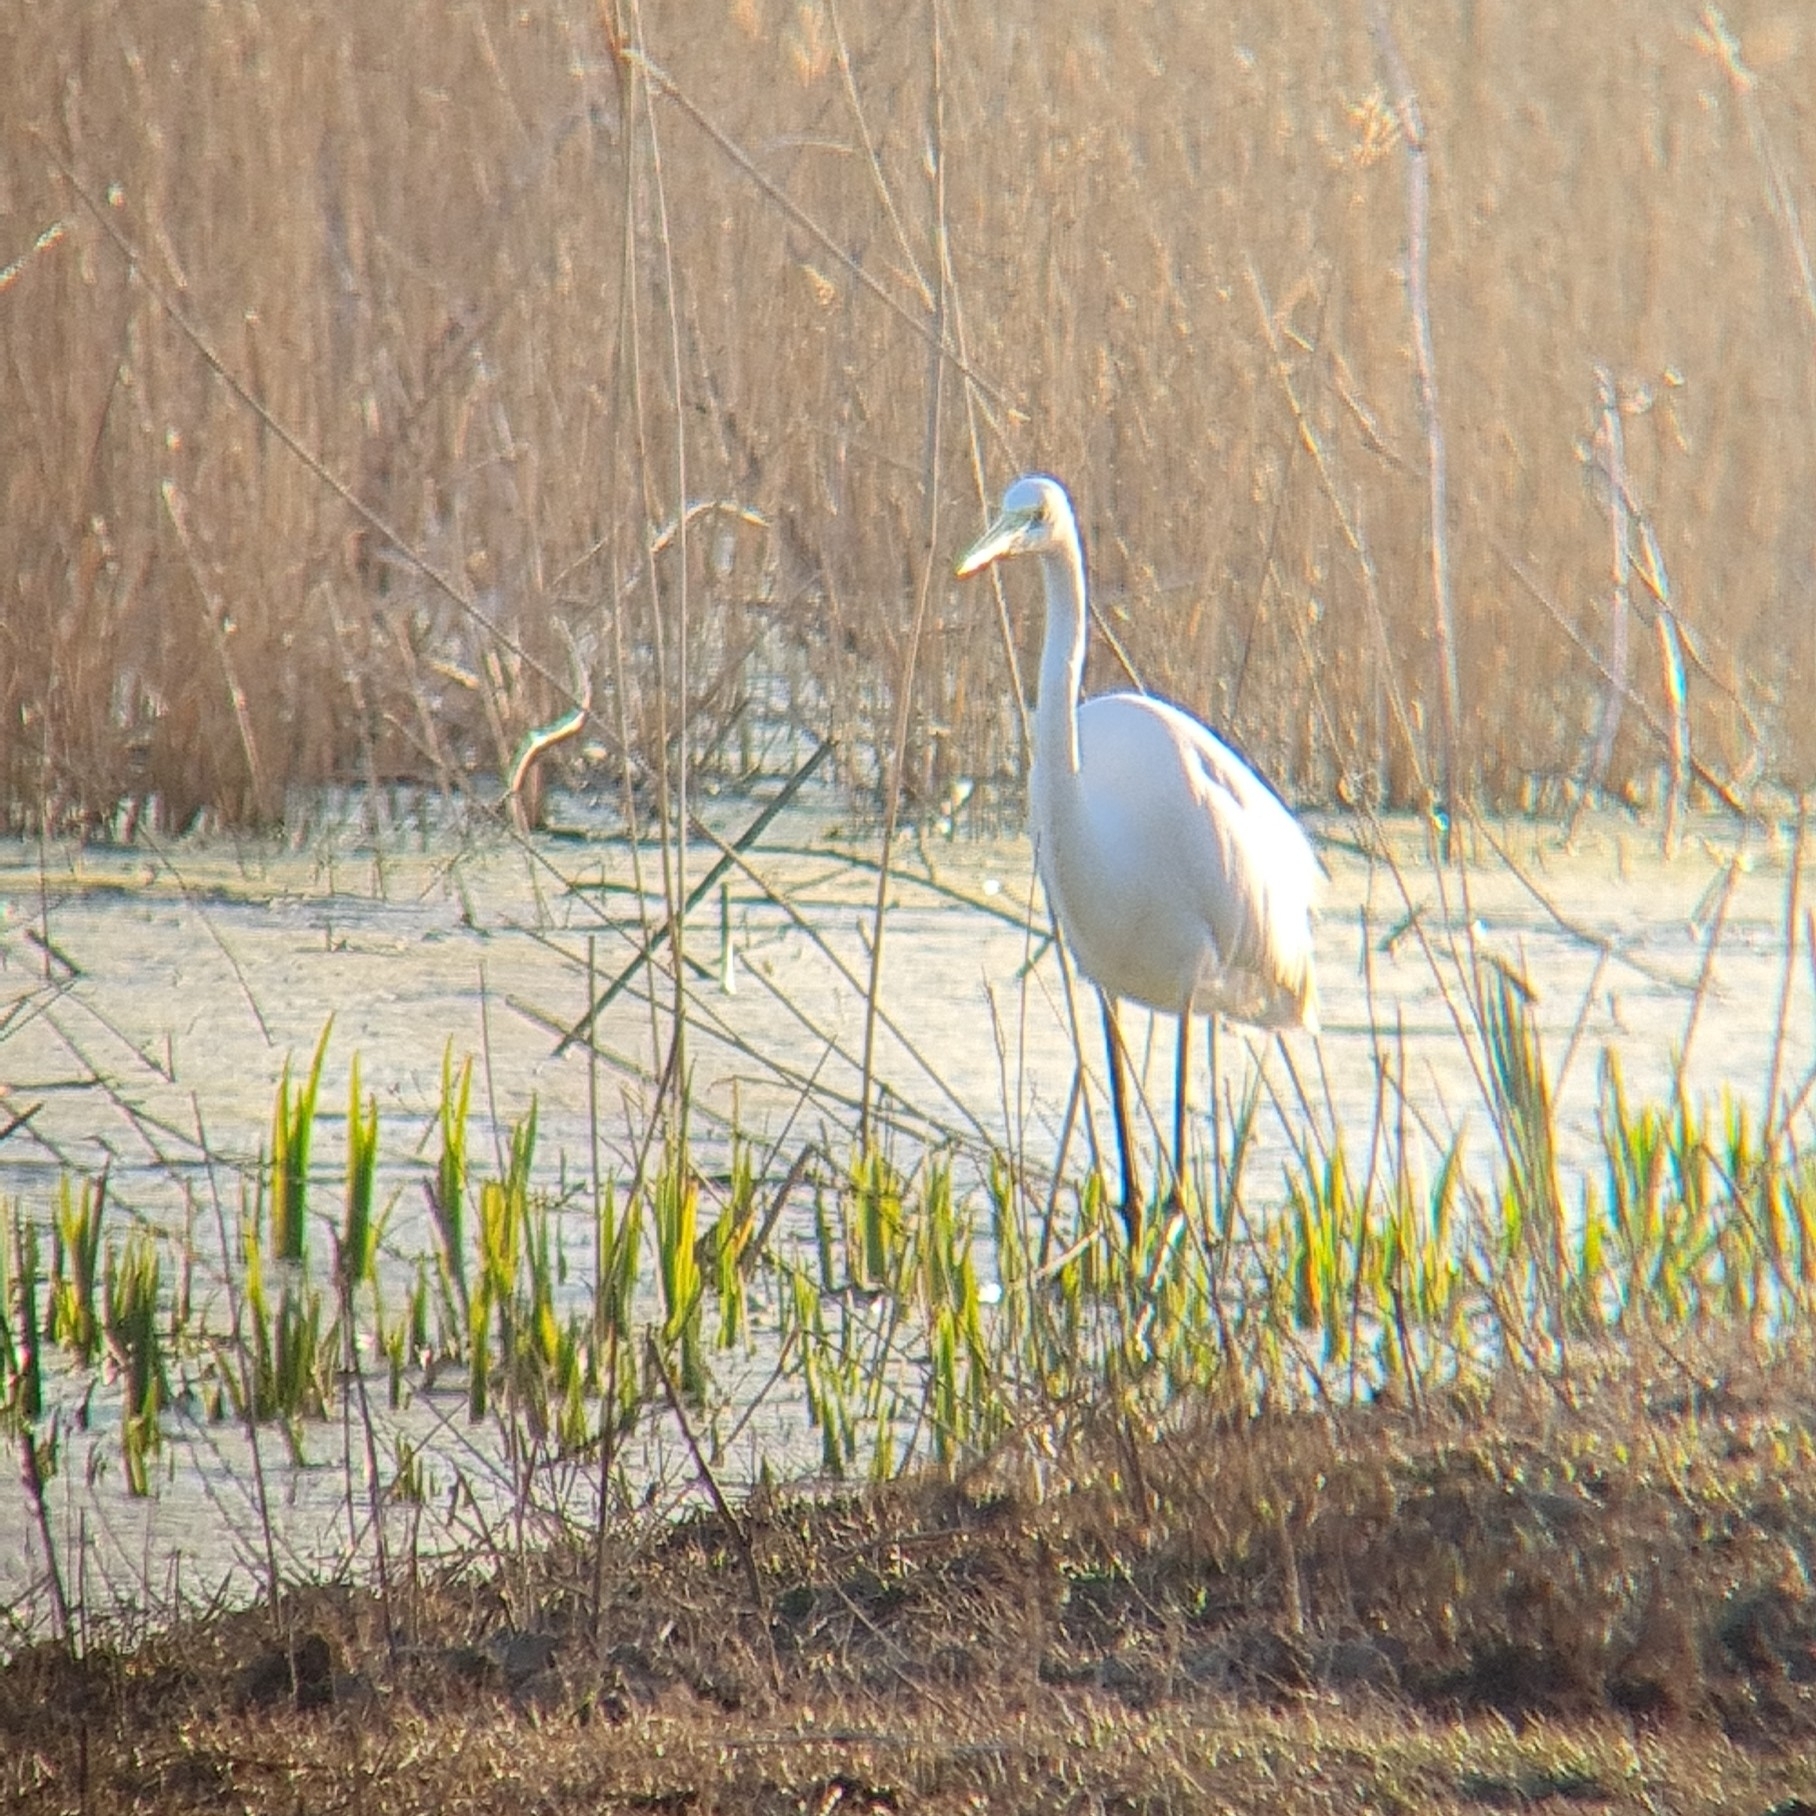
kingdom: Animalia
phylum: Chordata
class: Aves
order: Pelecaniformes
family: Ardeidae
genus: Ardea
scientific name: Ardea alba
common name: Great egret
